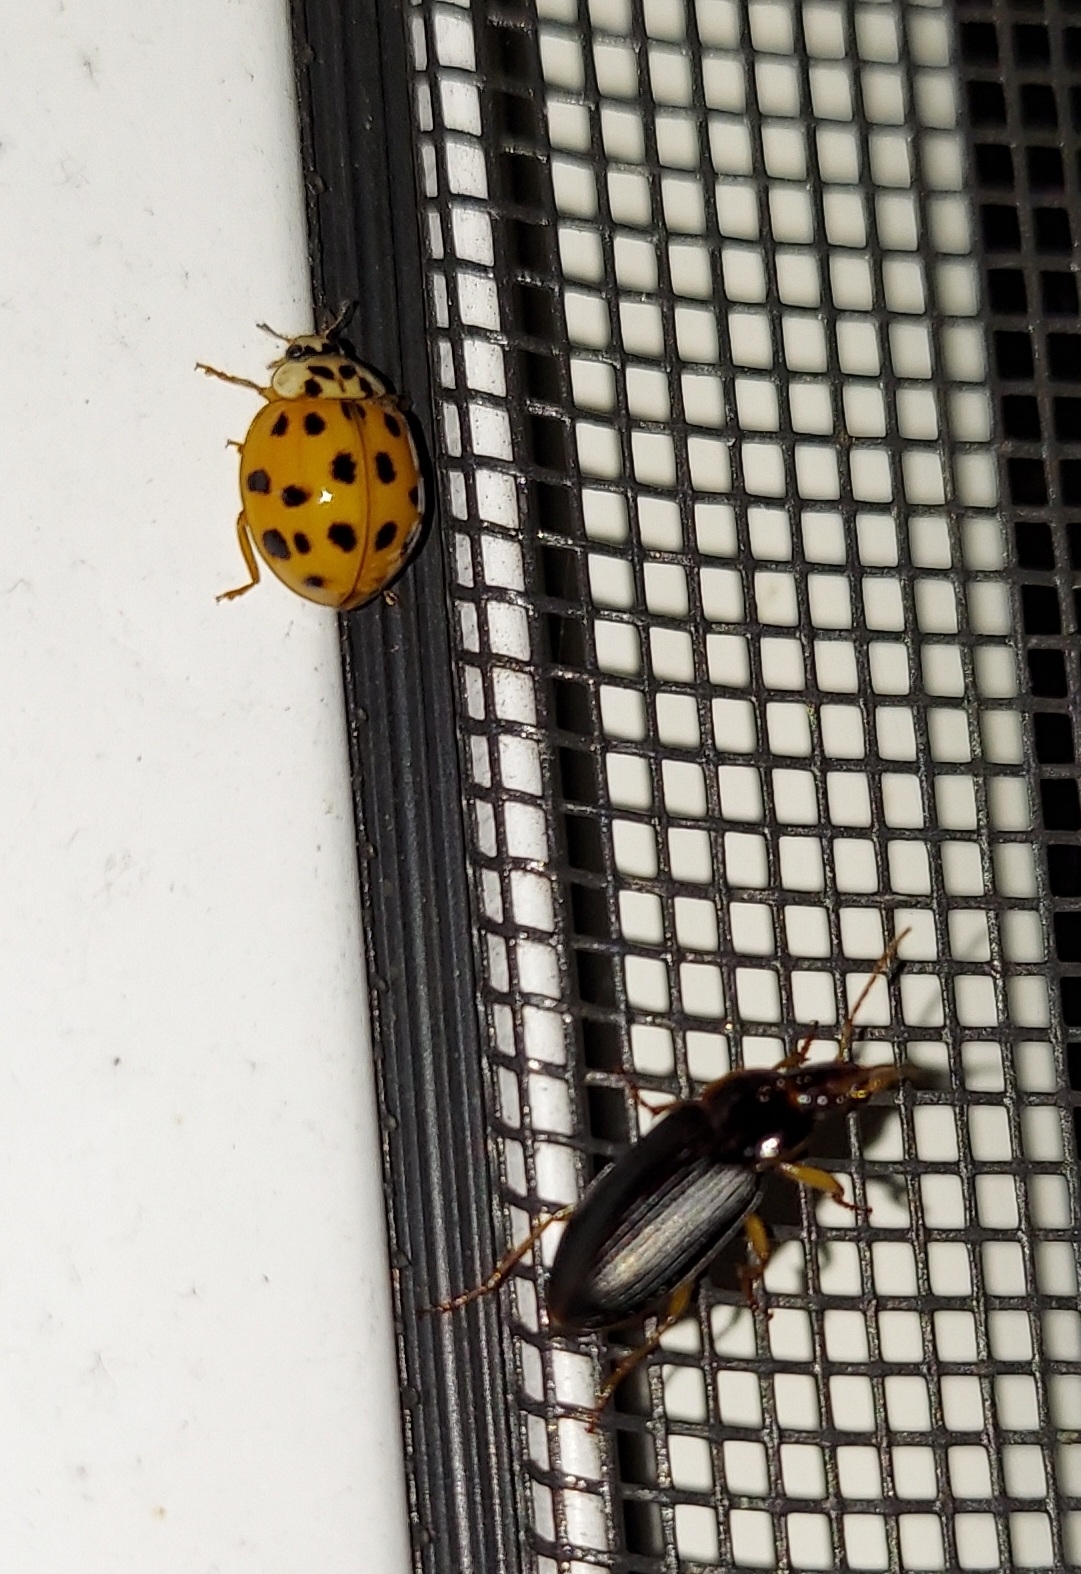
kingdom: Animalia
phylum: Arthropoda
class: Insecta
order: Coleoptera
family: Carabidae
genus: Notiobia
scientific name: Notiobia terminata
